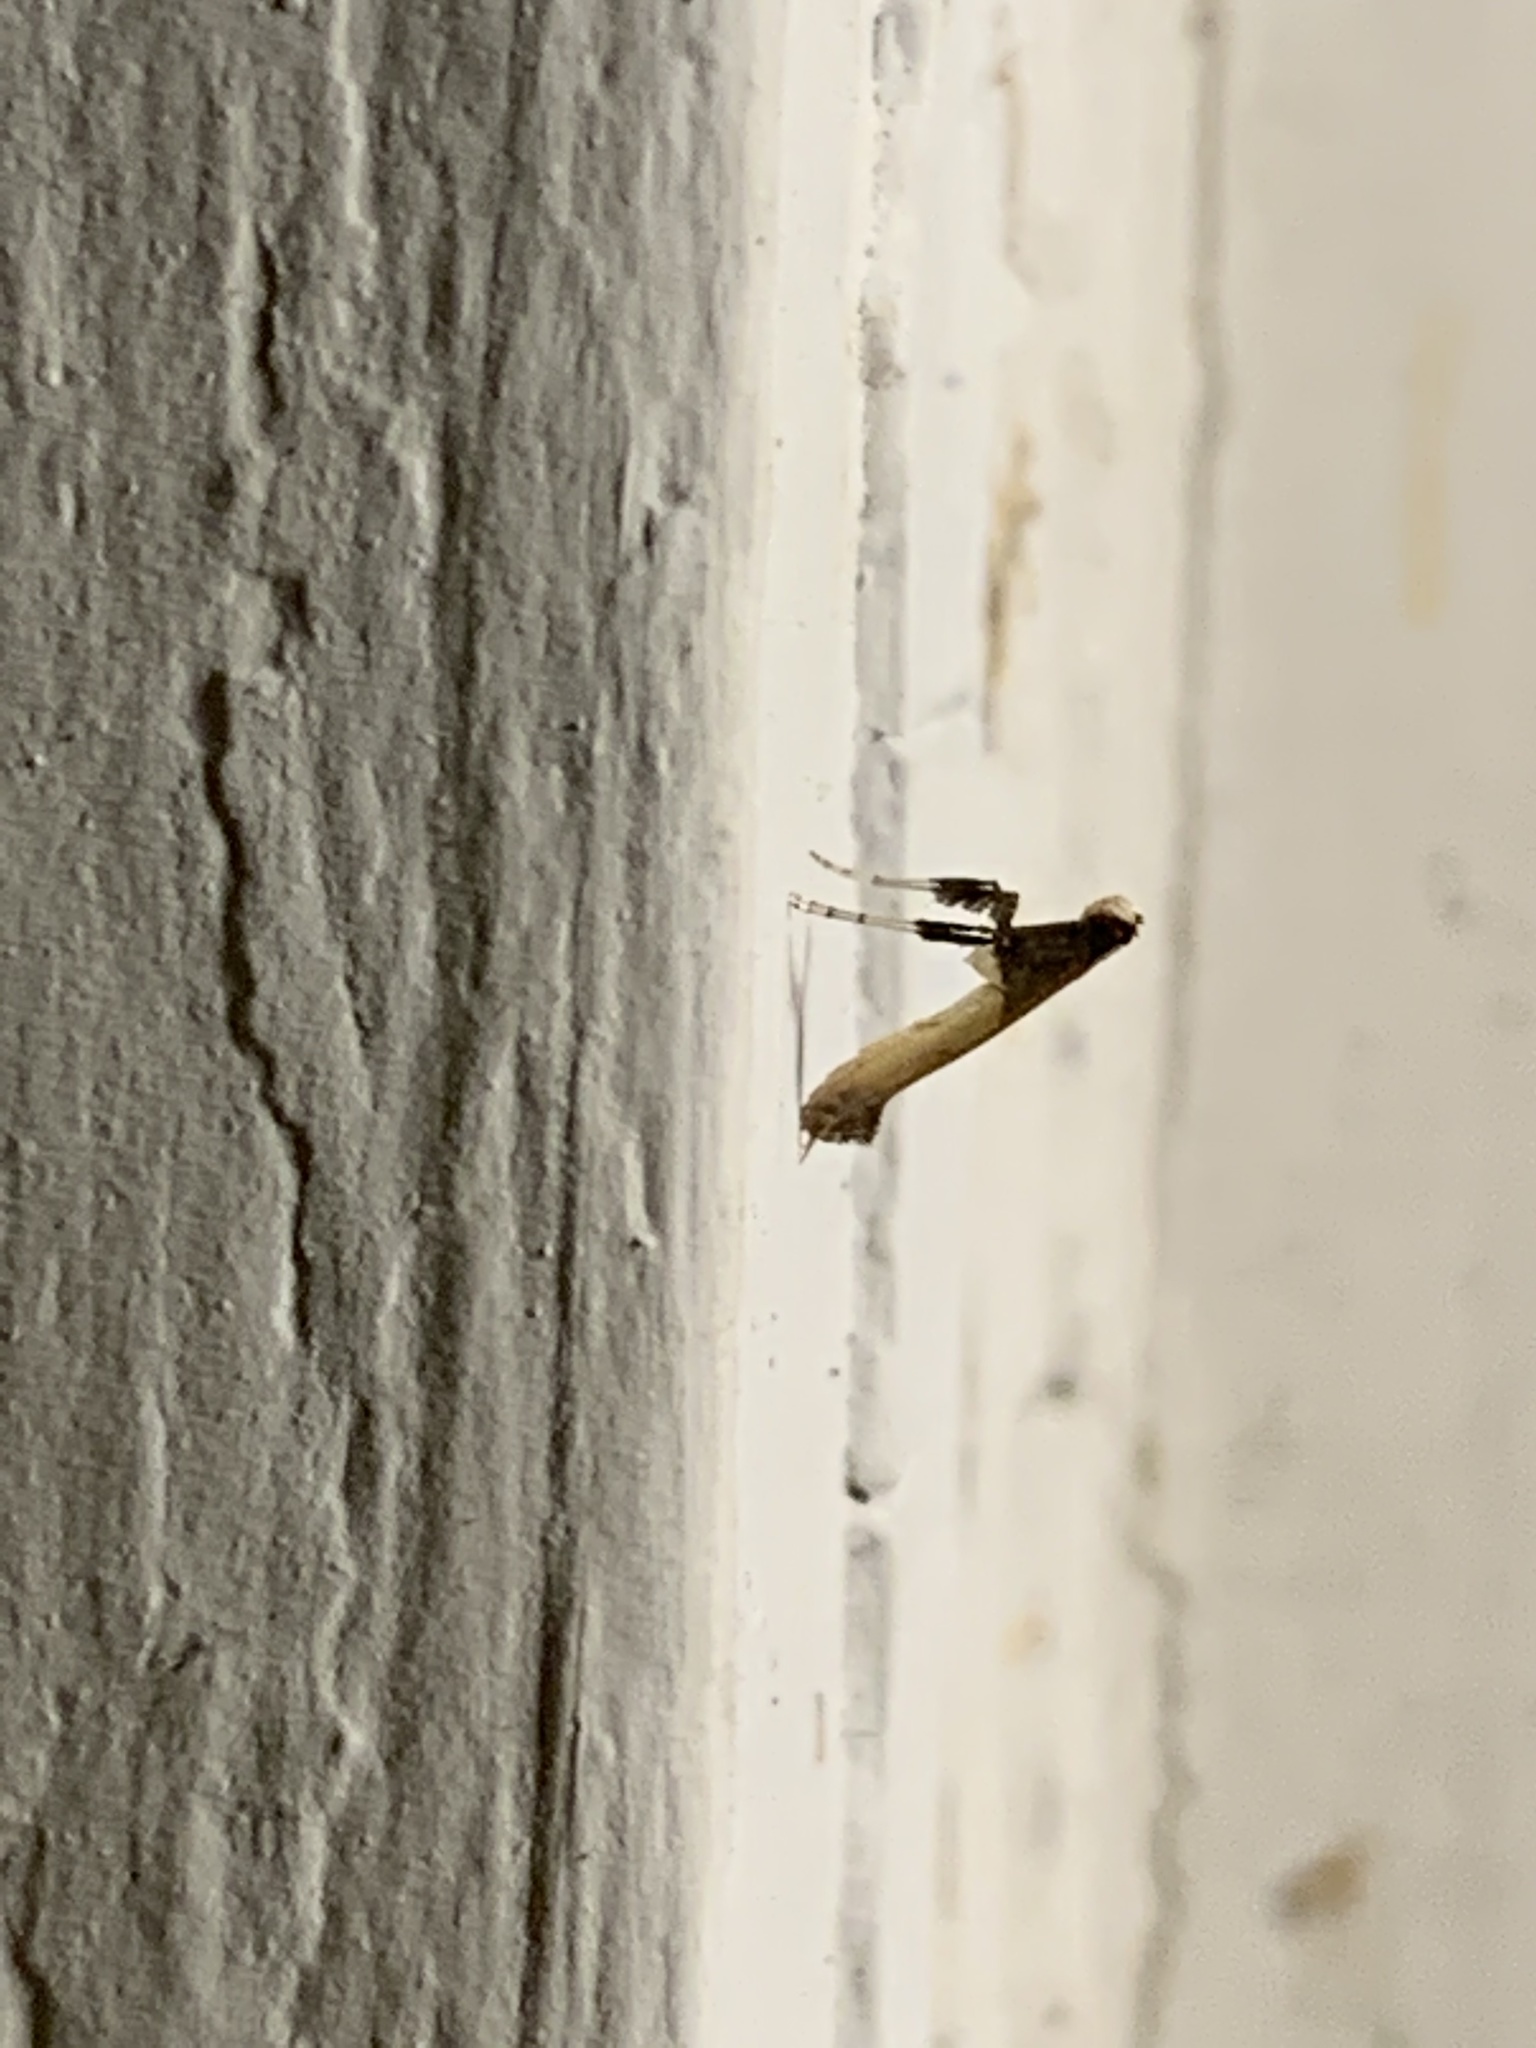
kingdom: Animalia
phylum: Arthropoda
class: Insecta
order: Lepidoptera
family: Gracillariidae
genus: Caloptilia
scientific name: Caloptilia azaleella
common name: Azalea leafminer
